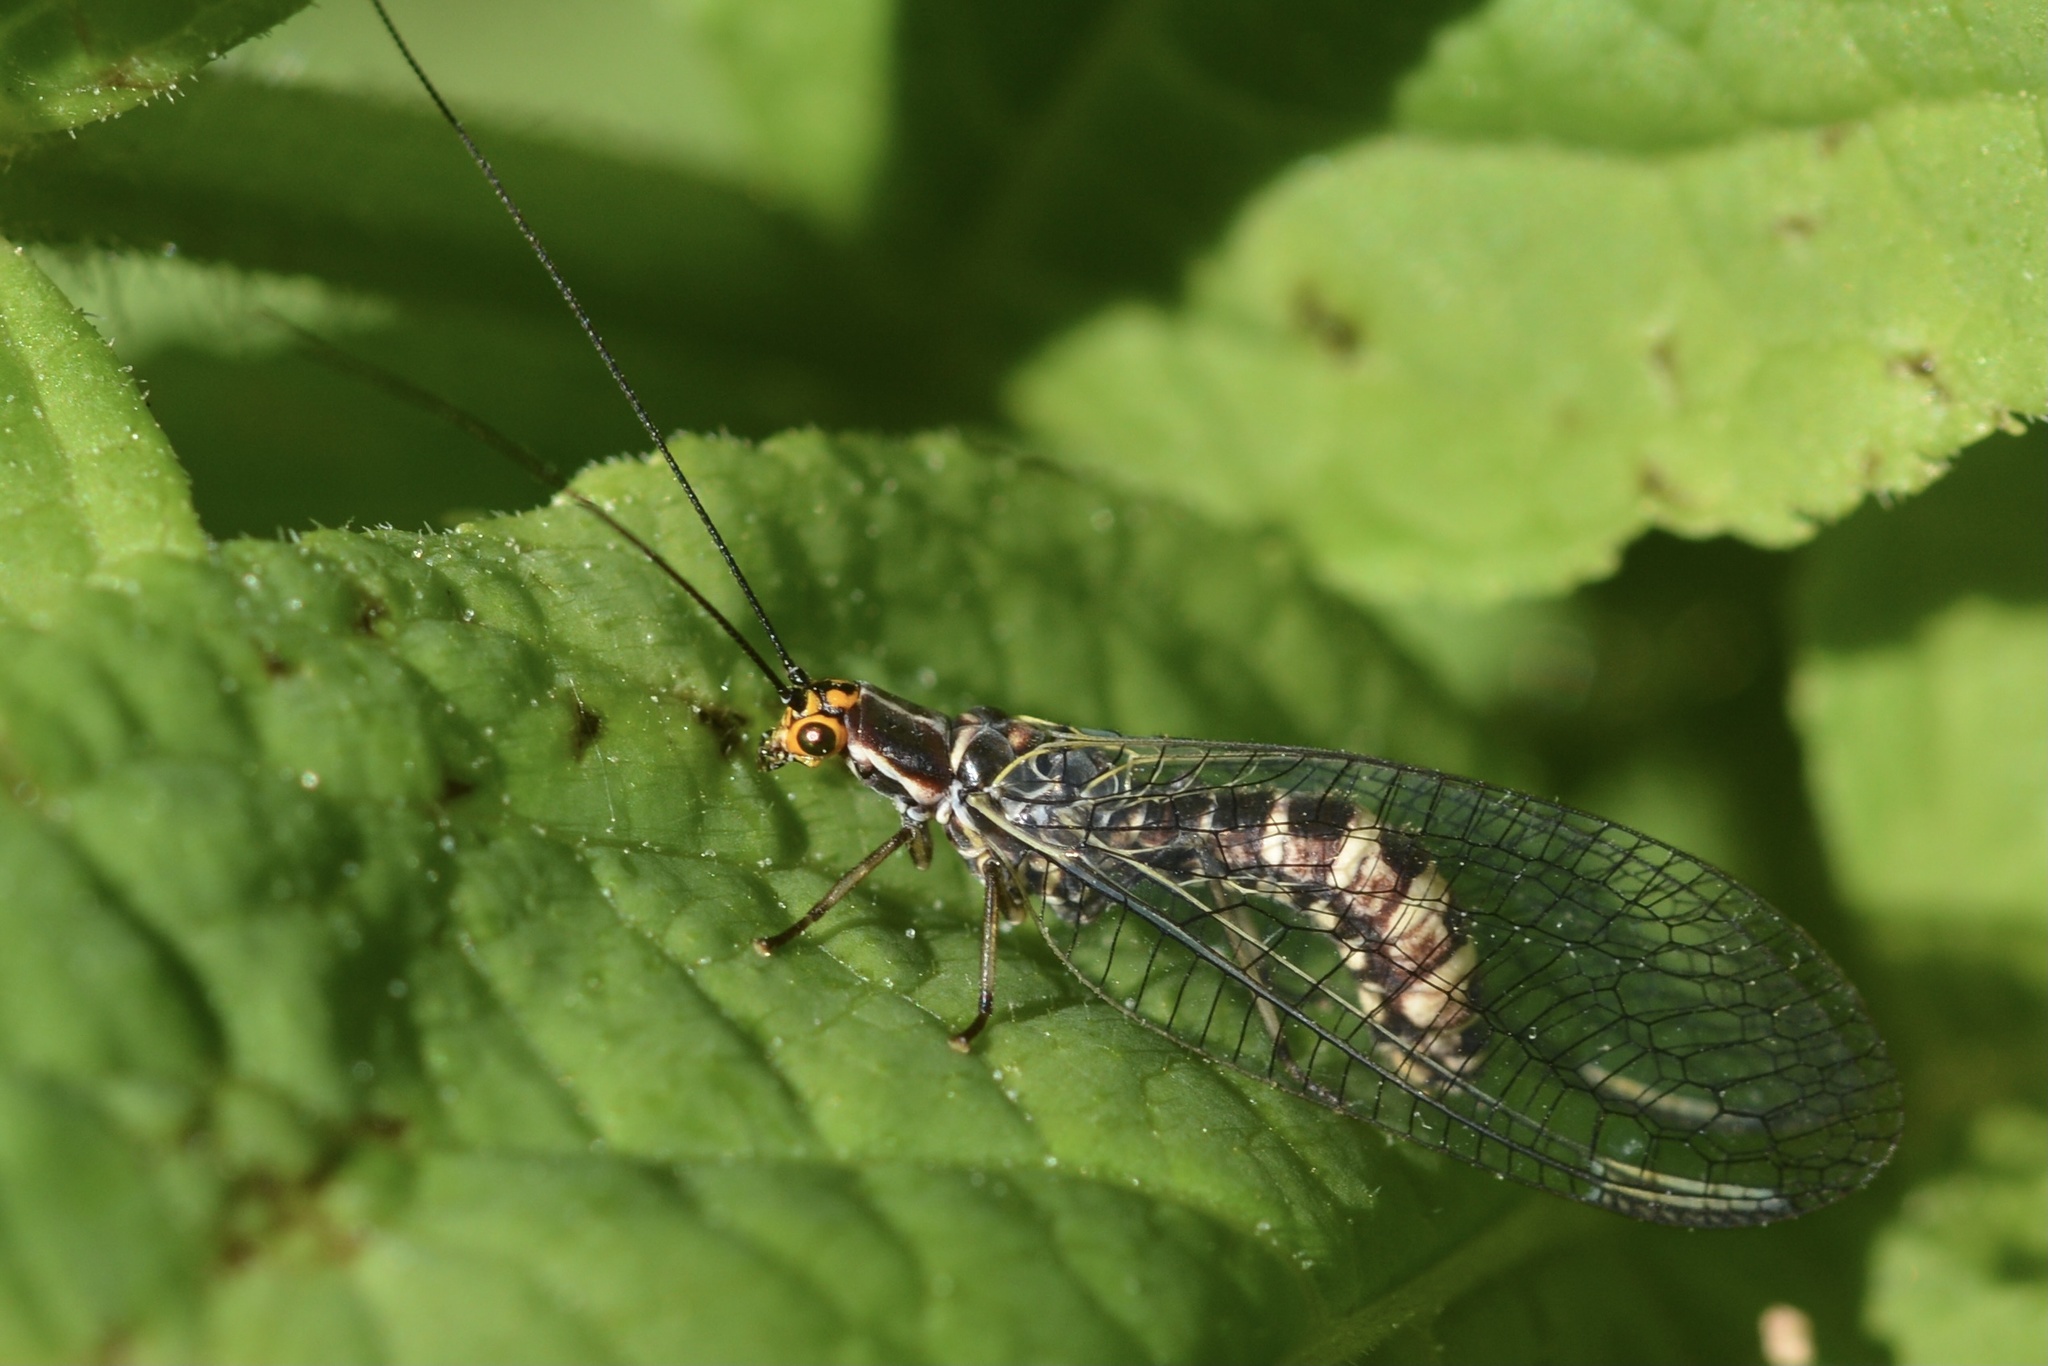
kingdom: Animalia
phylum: Arthropoda
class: Insecta
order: Neuroptera
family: Chrysopidae
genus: Nothochrysa
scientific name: Nothochrysa californica
